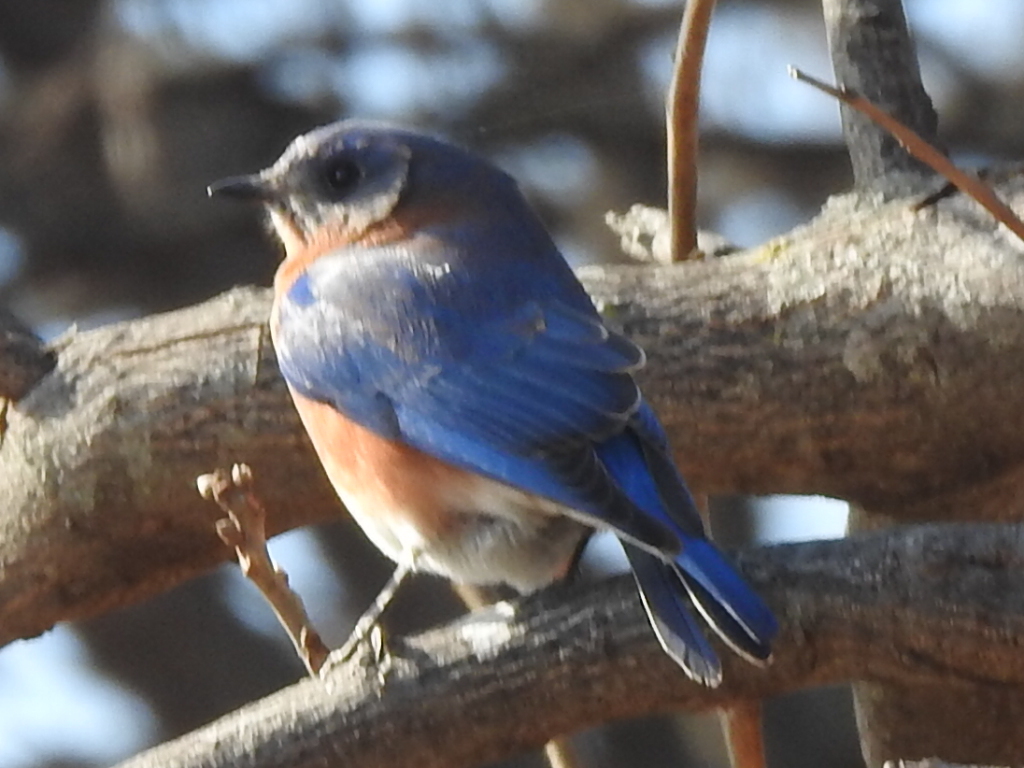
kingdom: Animalia
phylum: Chordata
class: Aves
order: Passeriformes
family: Turdidae
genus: Sialia
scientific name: Sialia sialis
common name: Eastern bluebird
